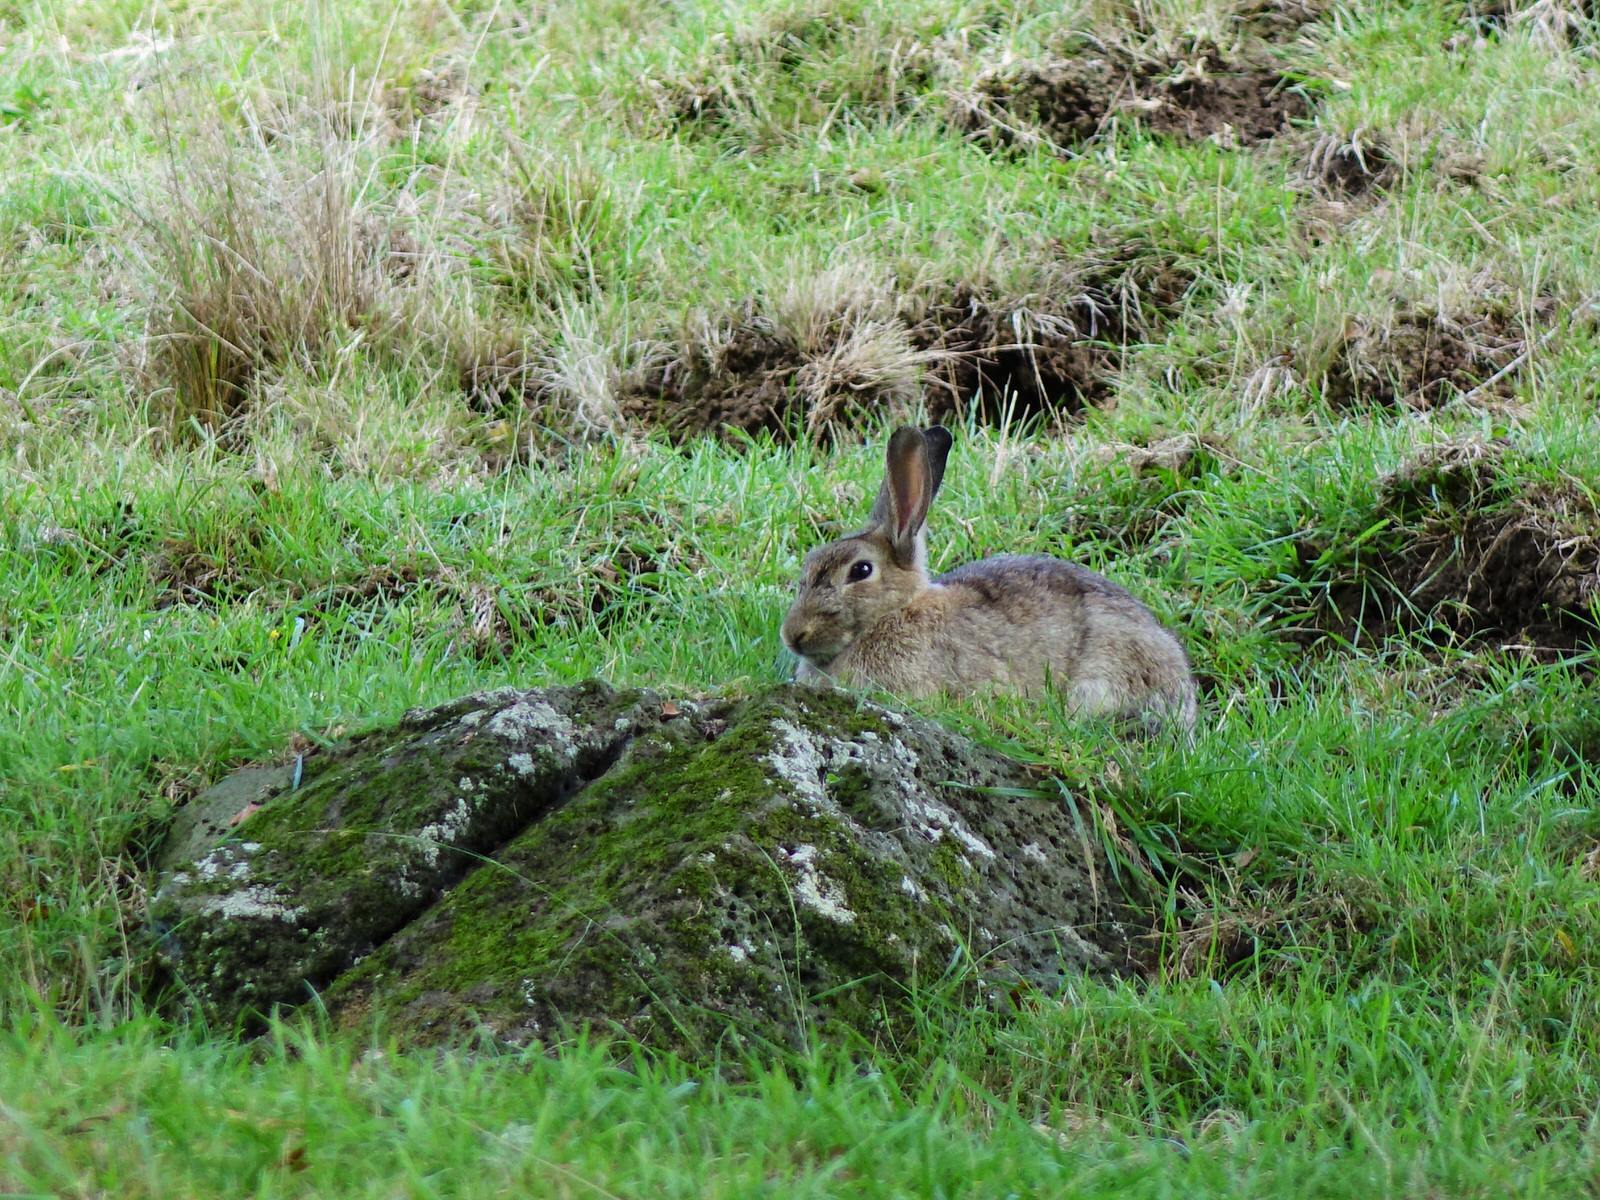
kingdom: Animalia
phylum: Chordata
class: Mammalia
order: Lagomorpha
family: Leporidae
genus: Oryctolagus
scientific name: Oryctolagus cuniculus
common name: European rabbit
